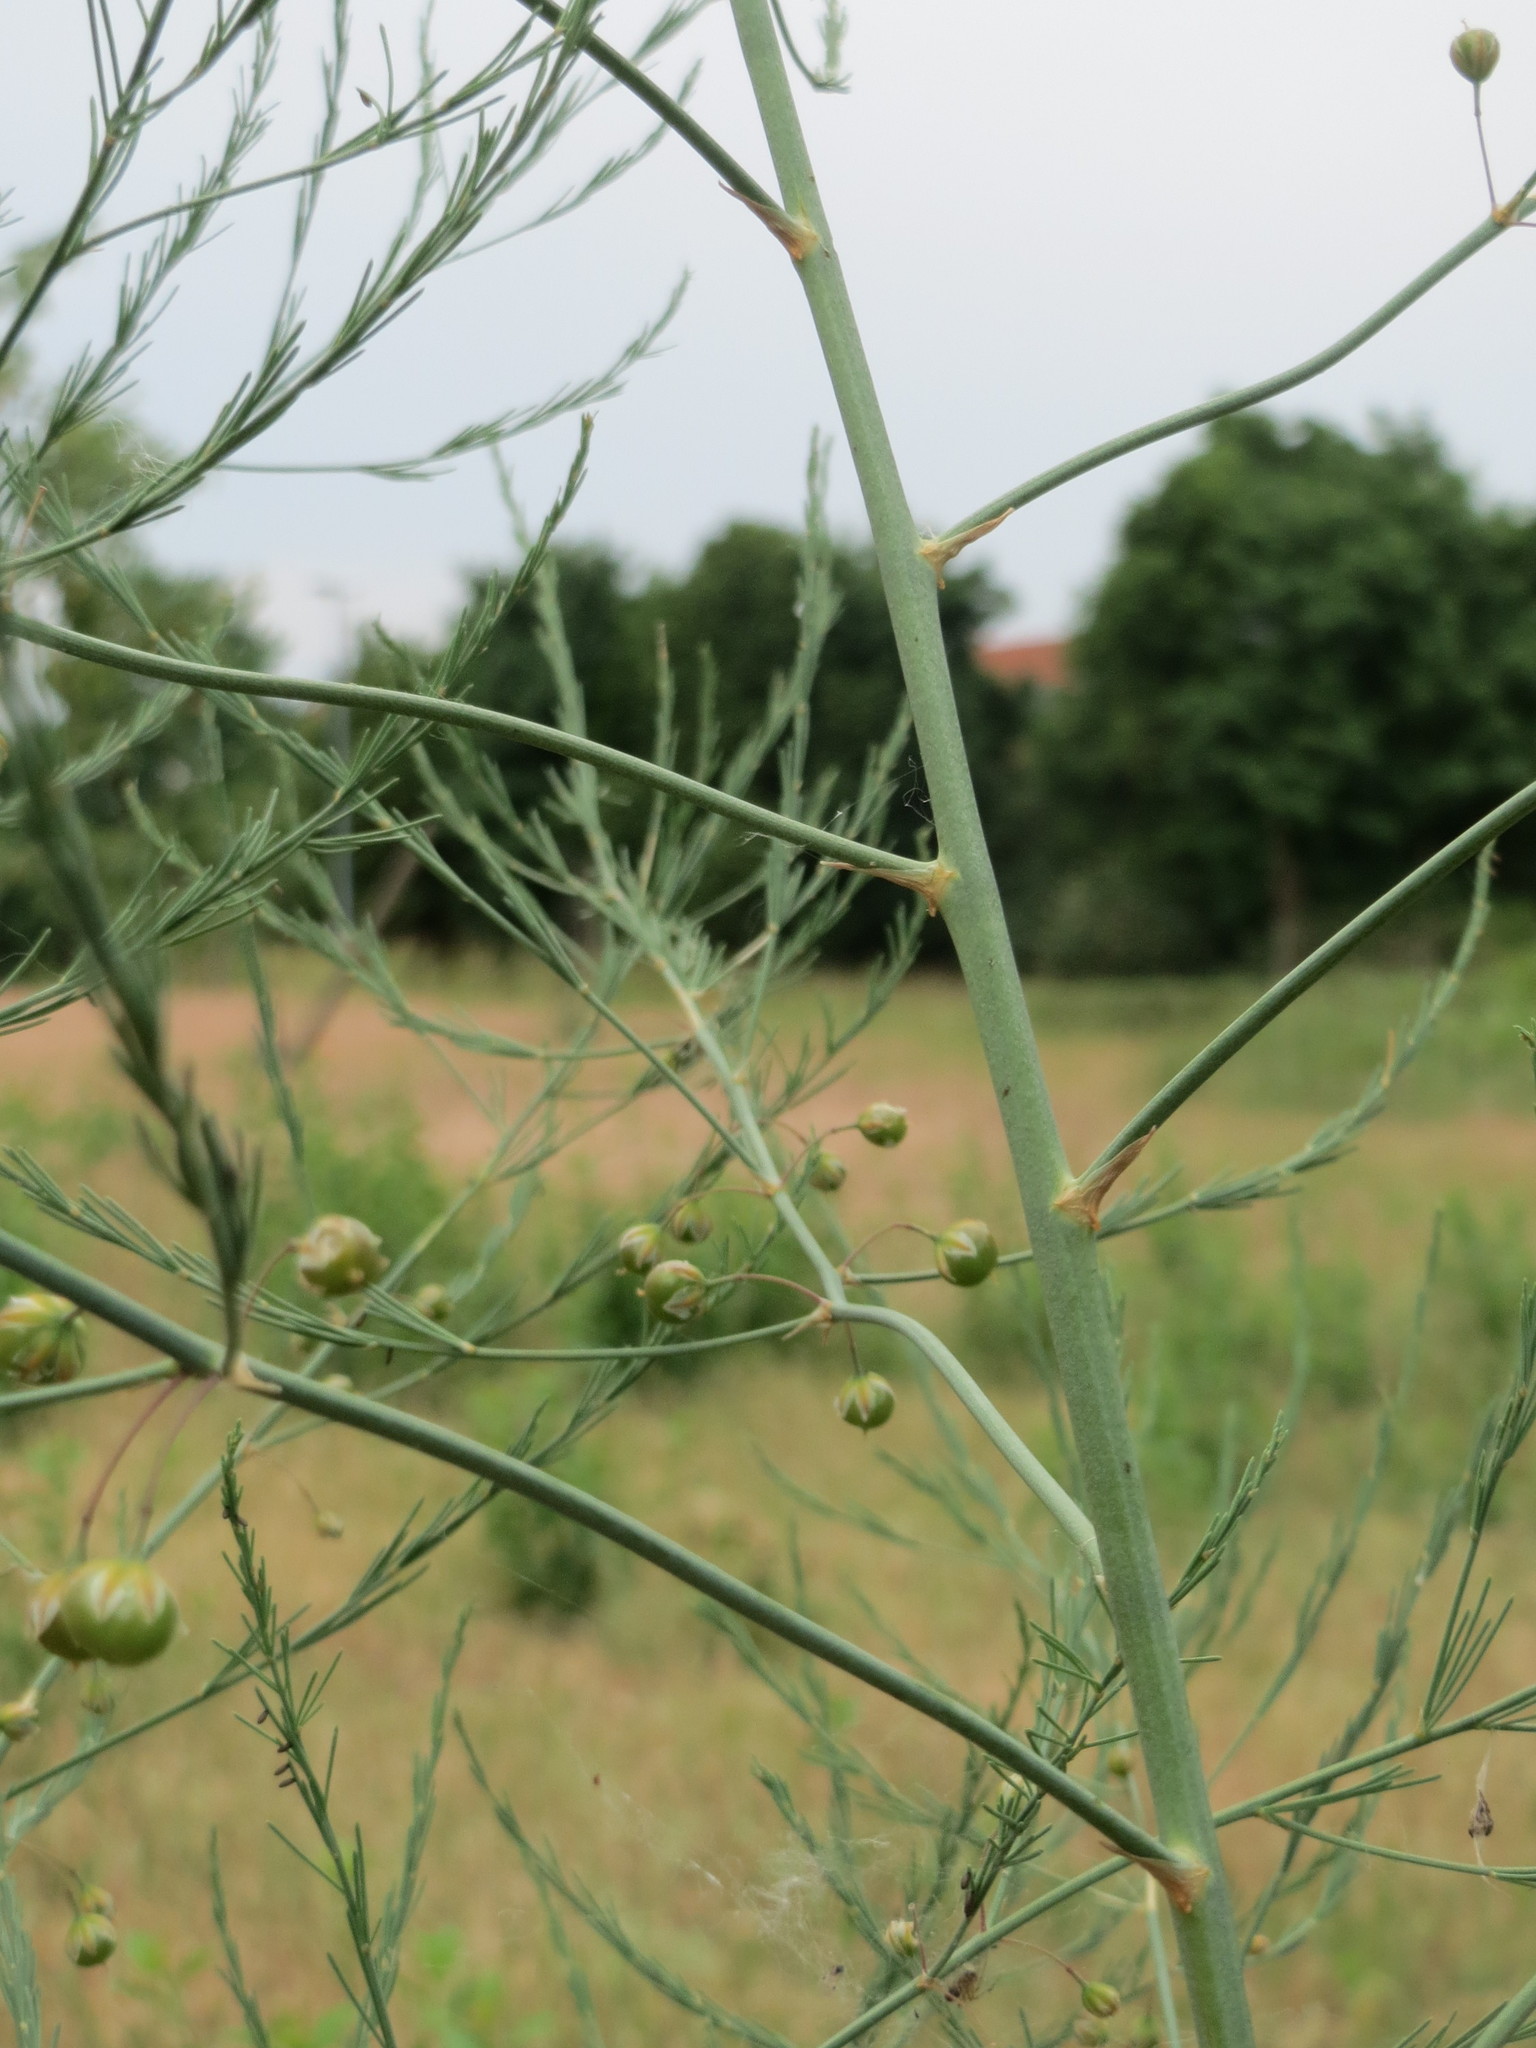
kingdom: Plantae
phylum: Tracheophyta
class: Liliopsida
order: Asparagales
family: Asparagaceae
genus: Asparagus
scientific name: Asparagus officinalis
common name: Garden asparagus
